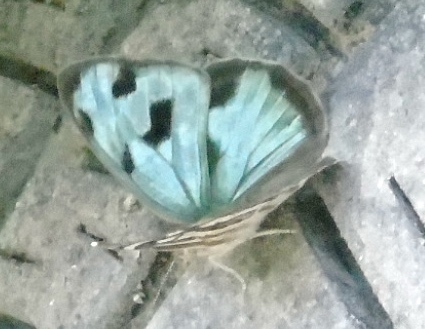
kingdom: Animalia
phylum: Arthropoda
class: Insecta
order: Lepidoptera
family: Nymphalidae
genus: Dynamine
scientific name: Dynamine mylitta
